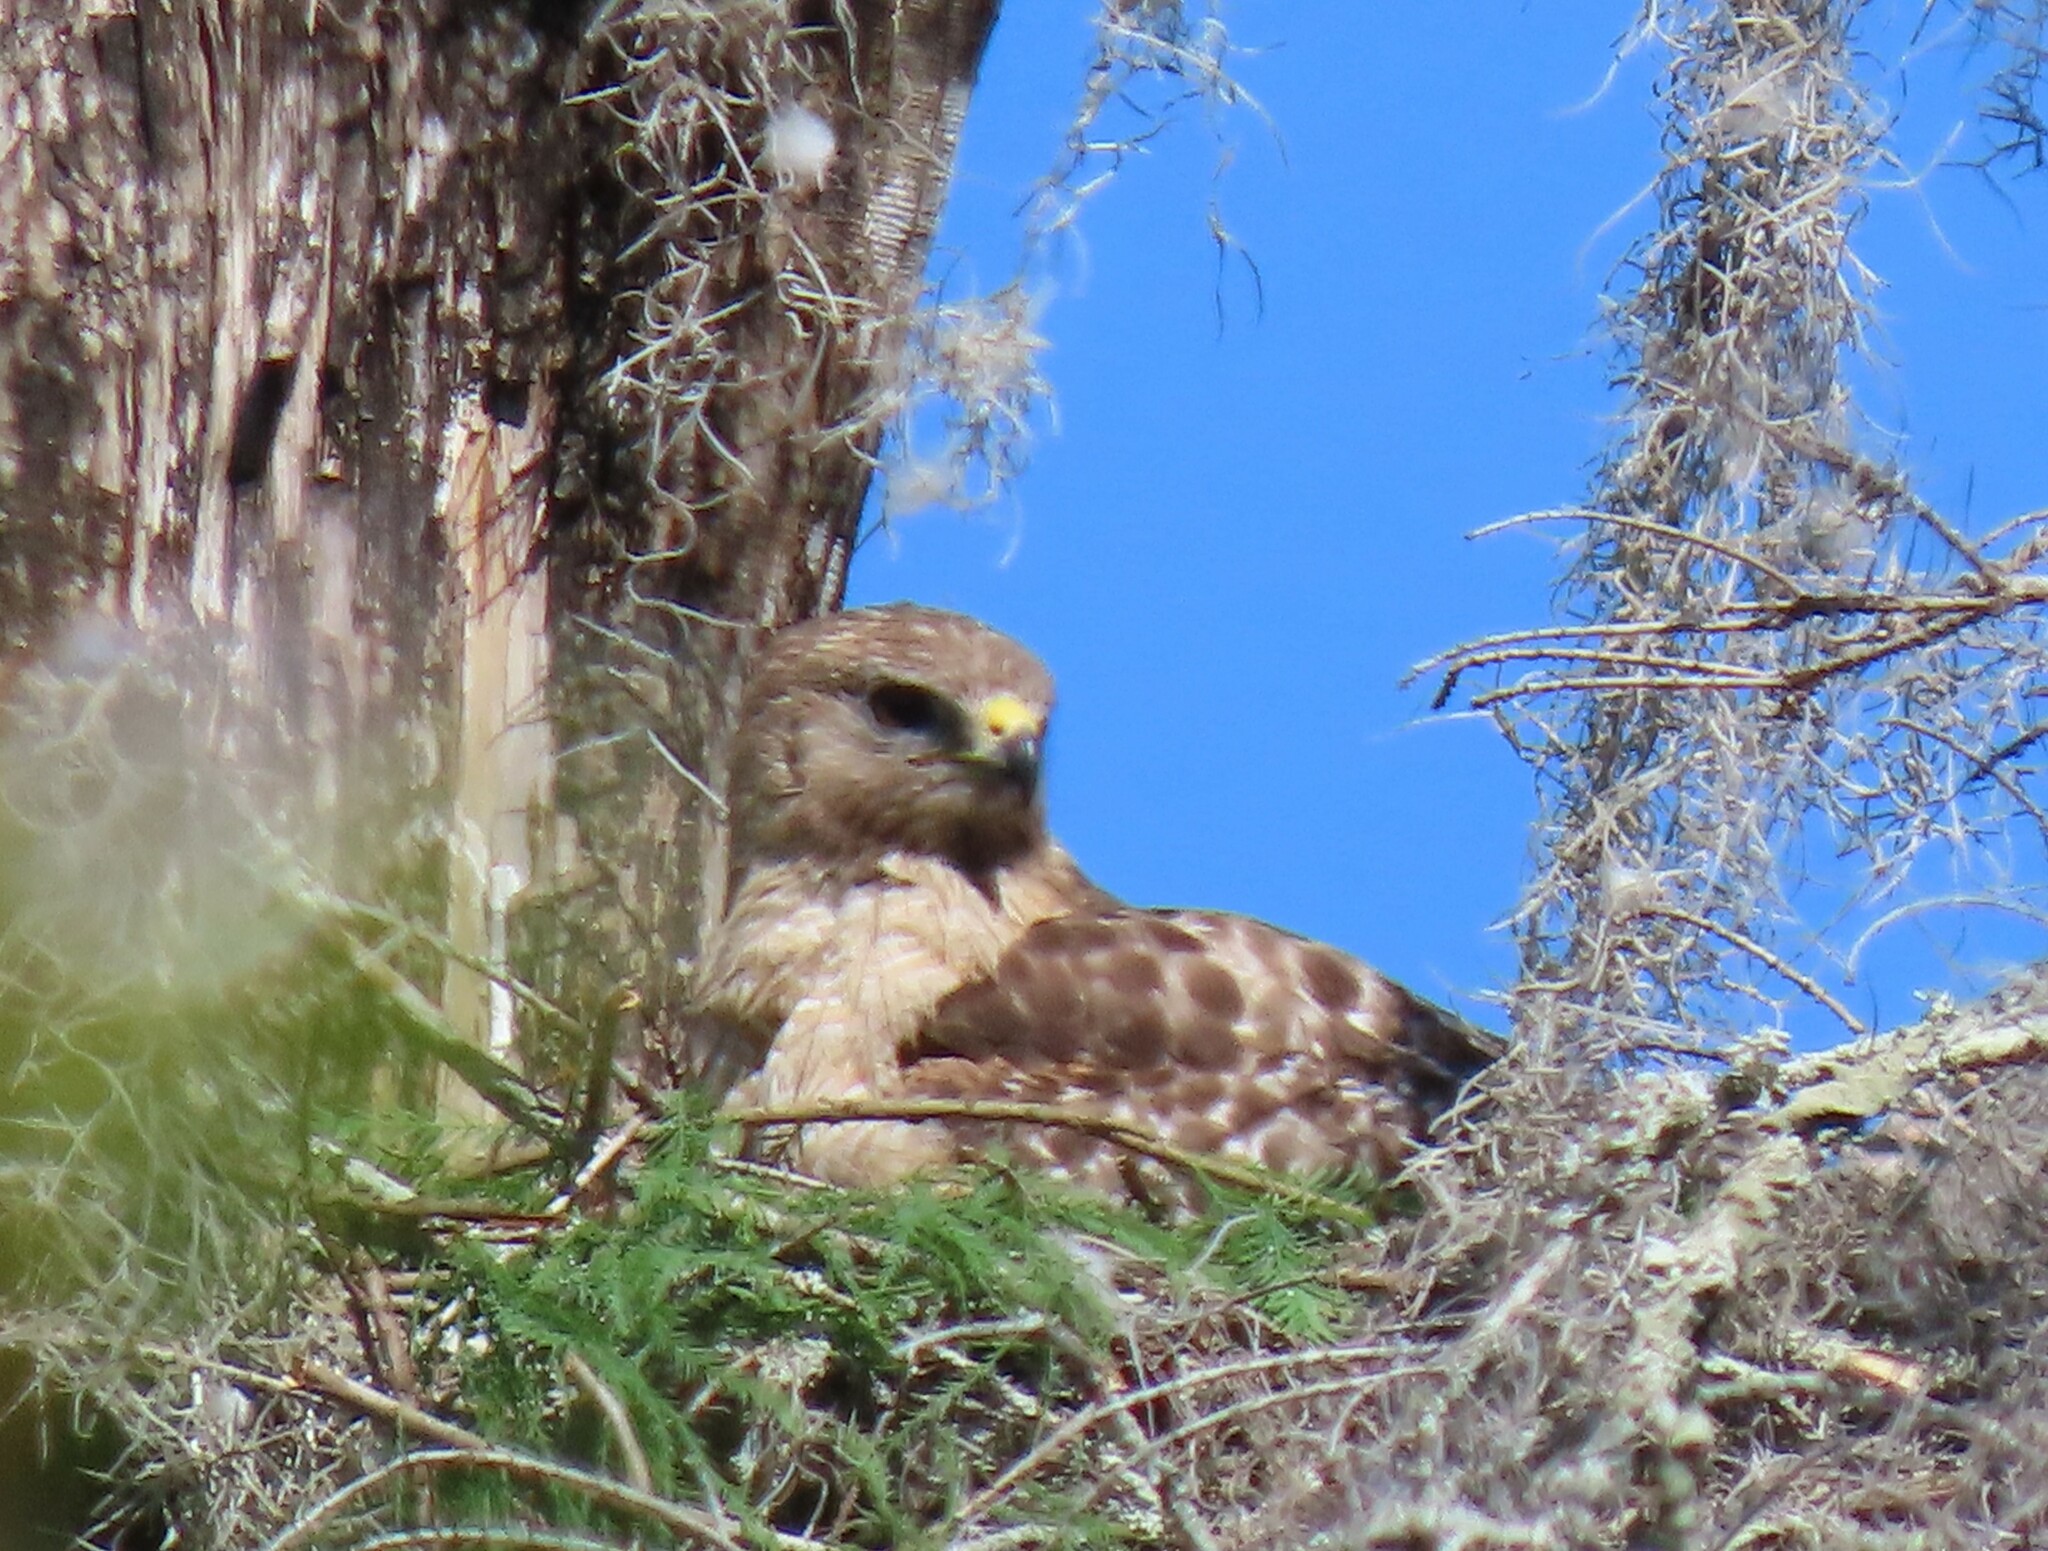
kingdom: Animalia
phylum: Chordata
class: Aves
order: Accipitriformes
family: Accipitridae
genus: Buteo
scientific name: Buteo lineatus
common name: Red-shouldered hawk
